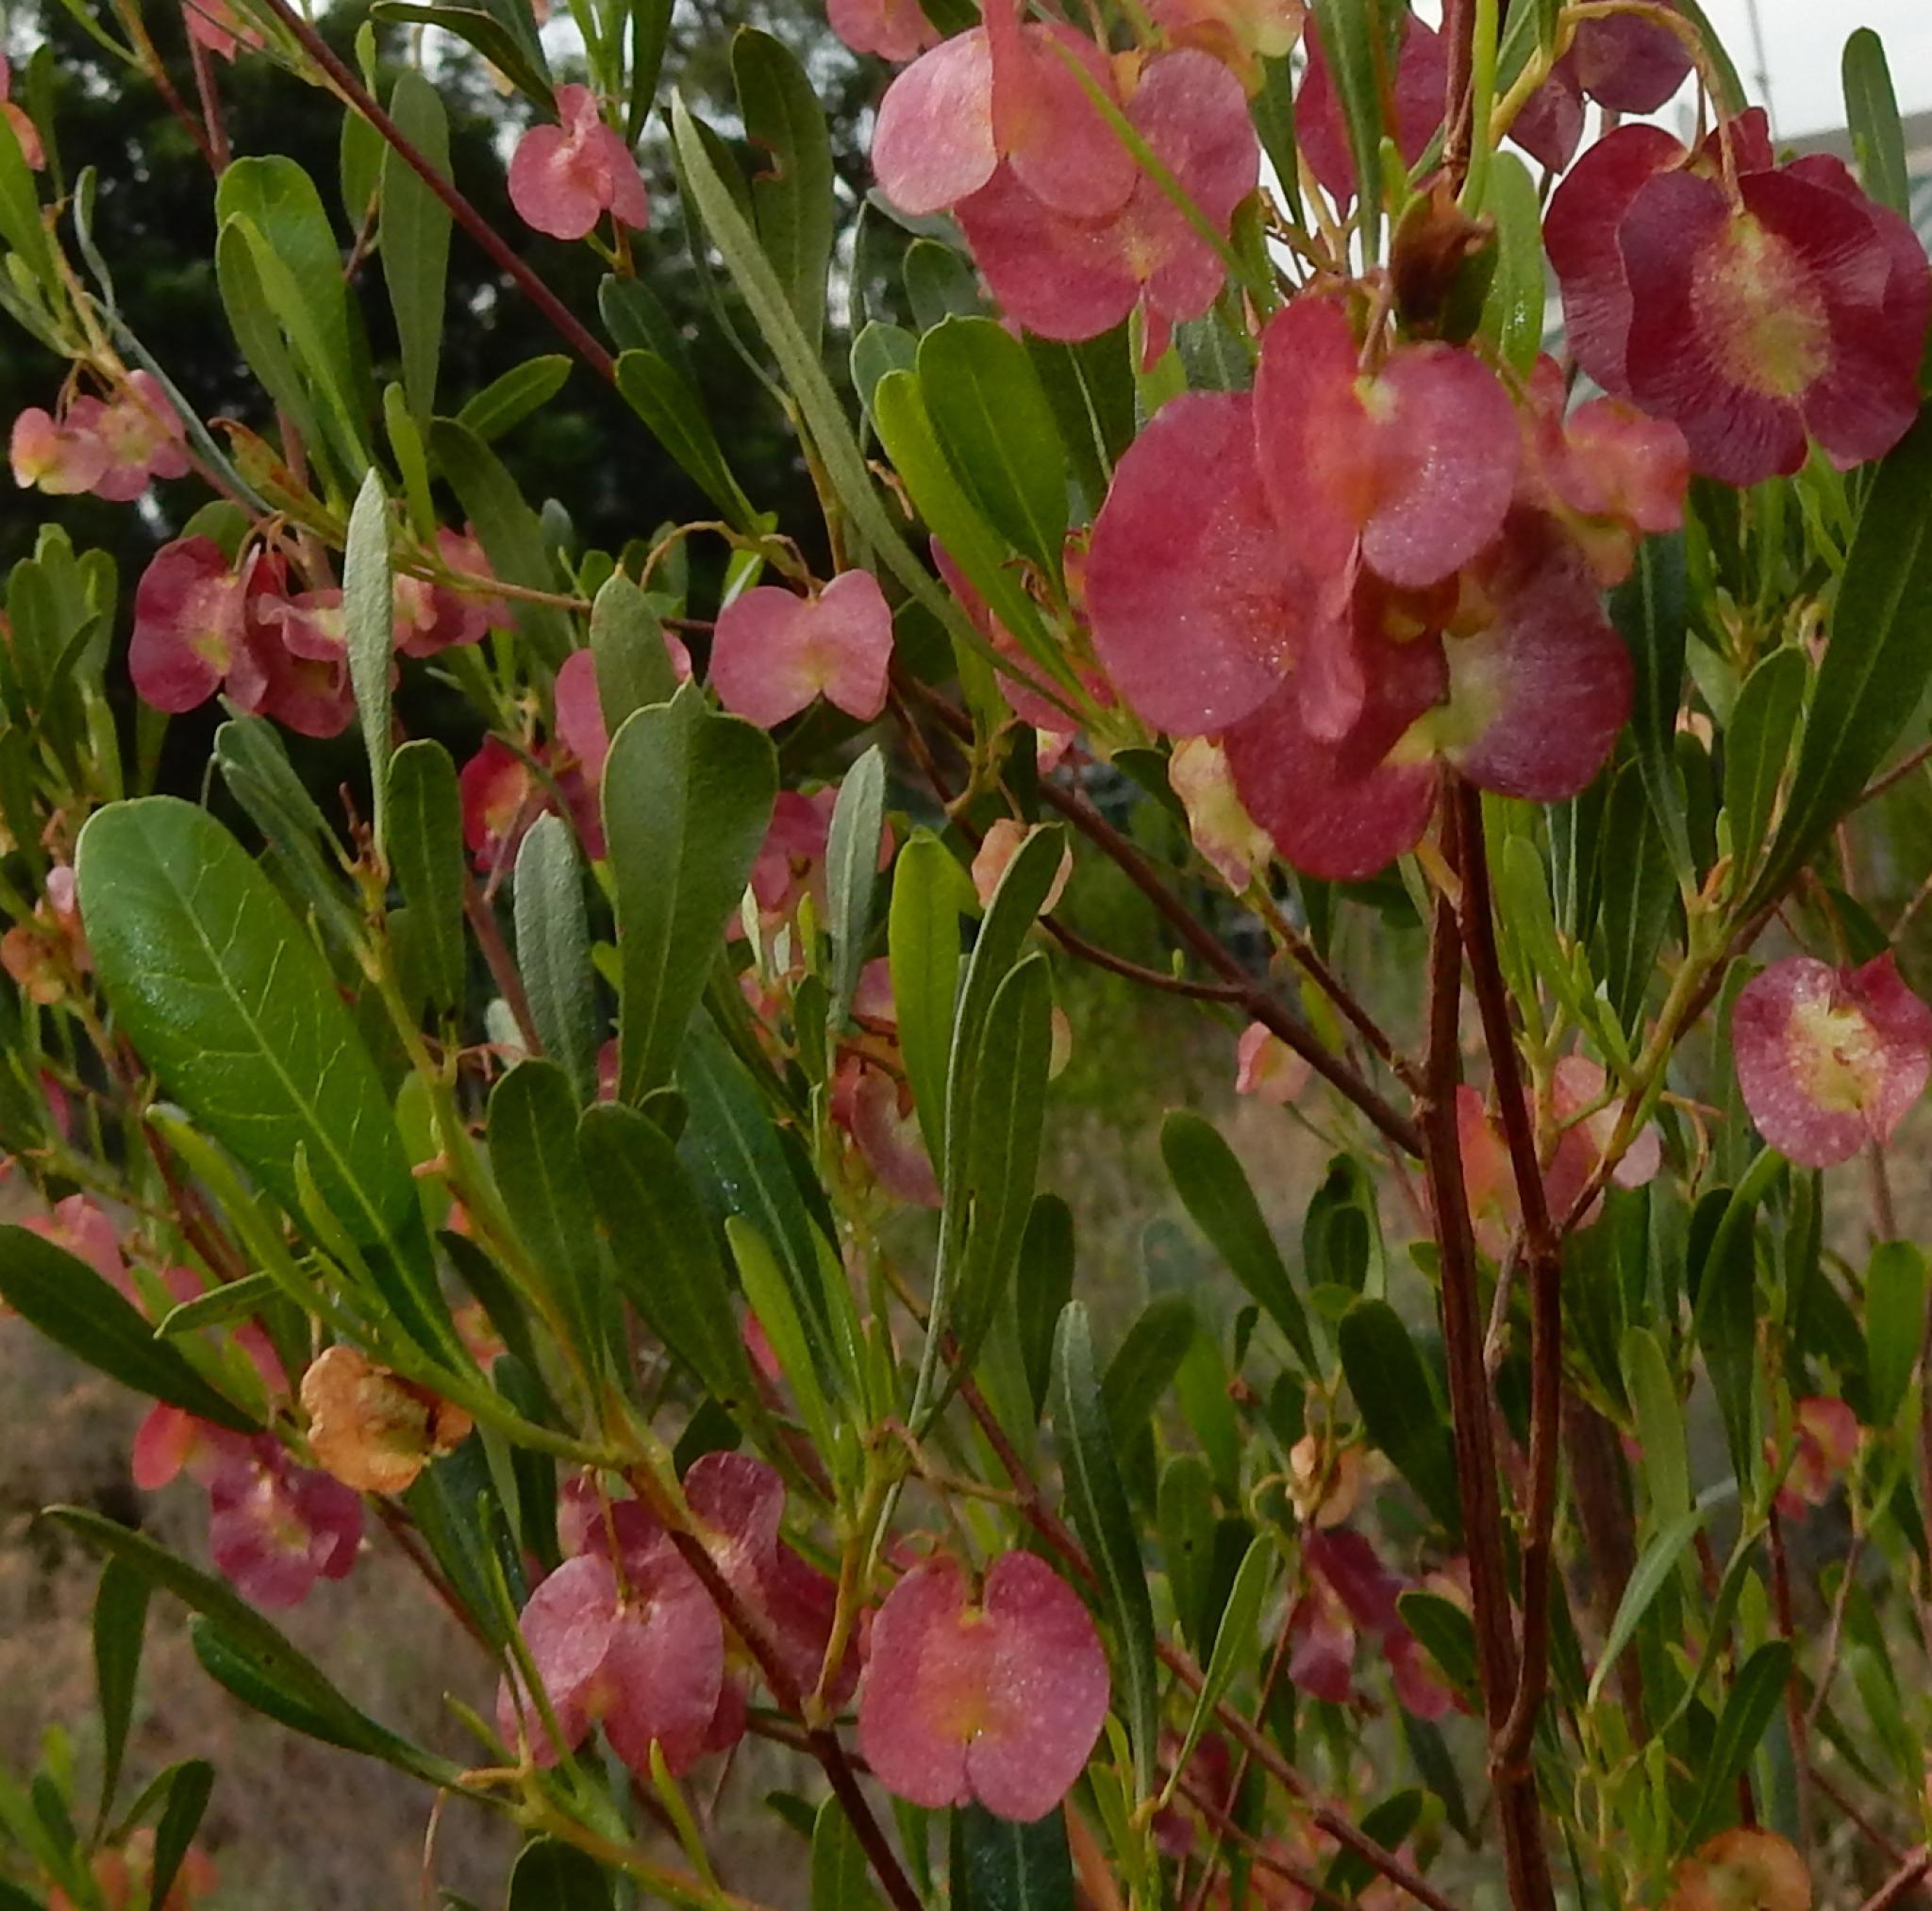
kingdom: Plantae
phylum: Tracheophyta
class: Magnoliopsida
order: Sapindales
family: Sapindaceae
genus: Dodonaea
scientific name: Dodonaea viscosa
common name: Hopbush
